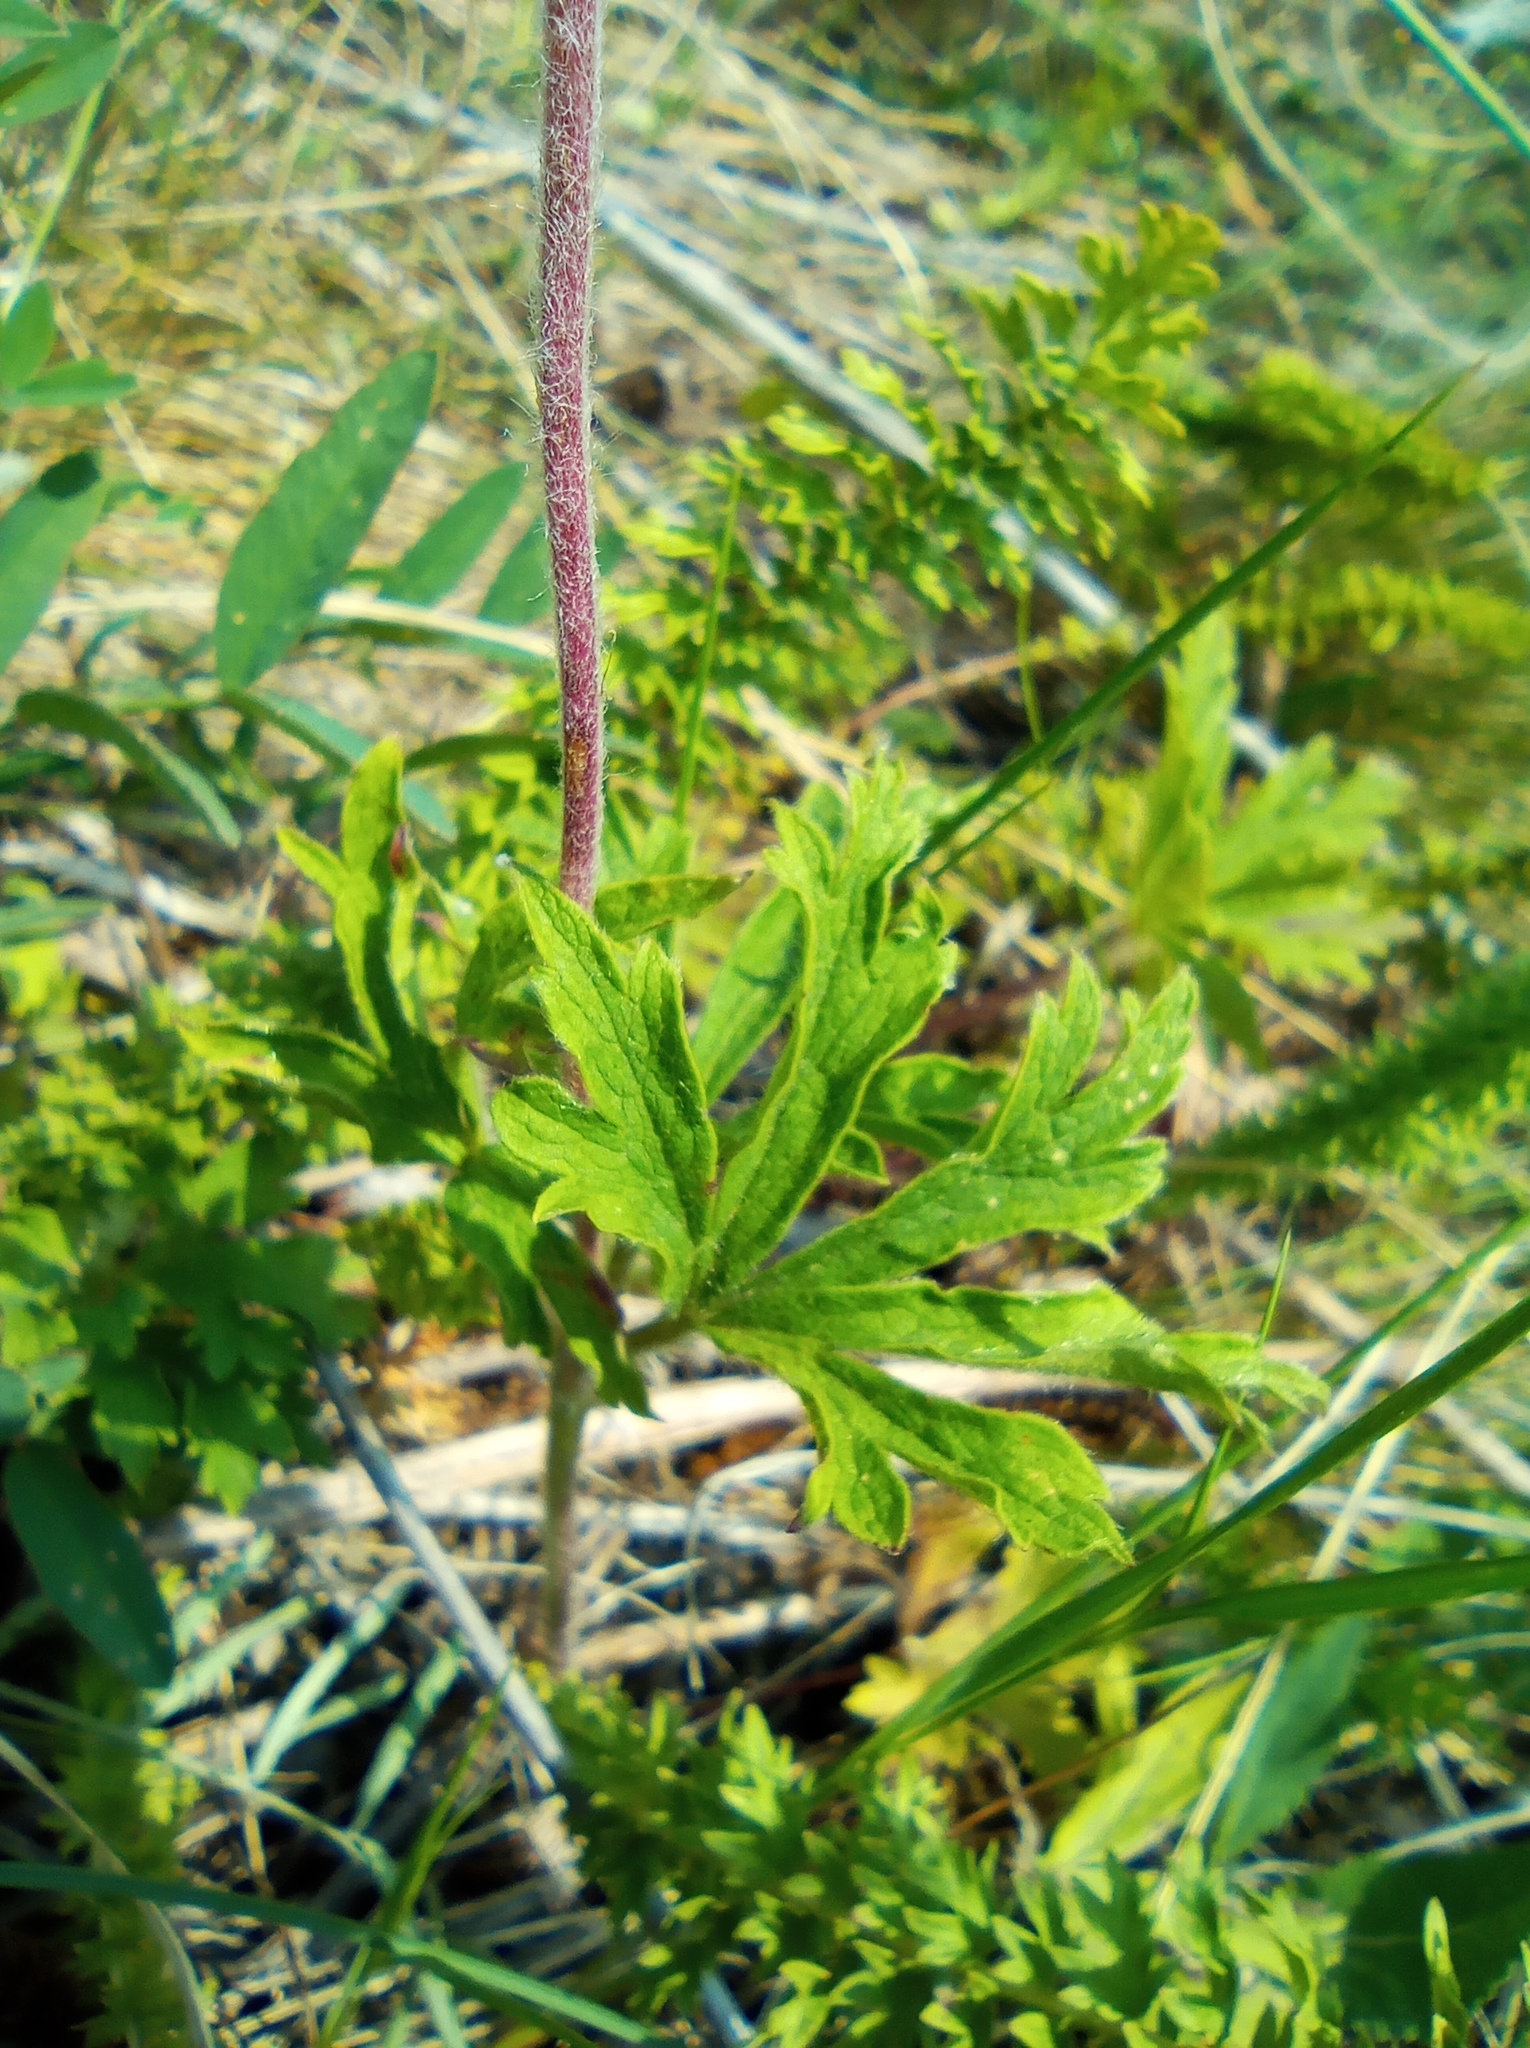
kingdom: Plantae
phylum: Tracheophyta
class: Magnoliopsida
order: Ranunculales
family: Ranunculaceae
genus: Anemone
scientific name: Anemone sylvestris
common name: Snowdrop anemone
